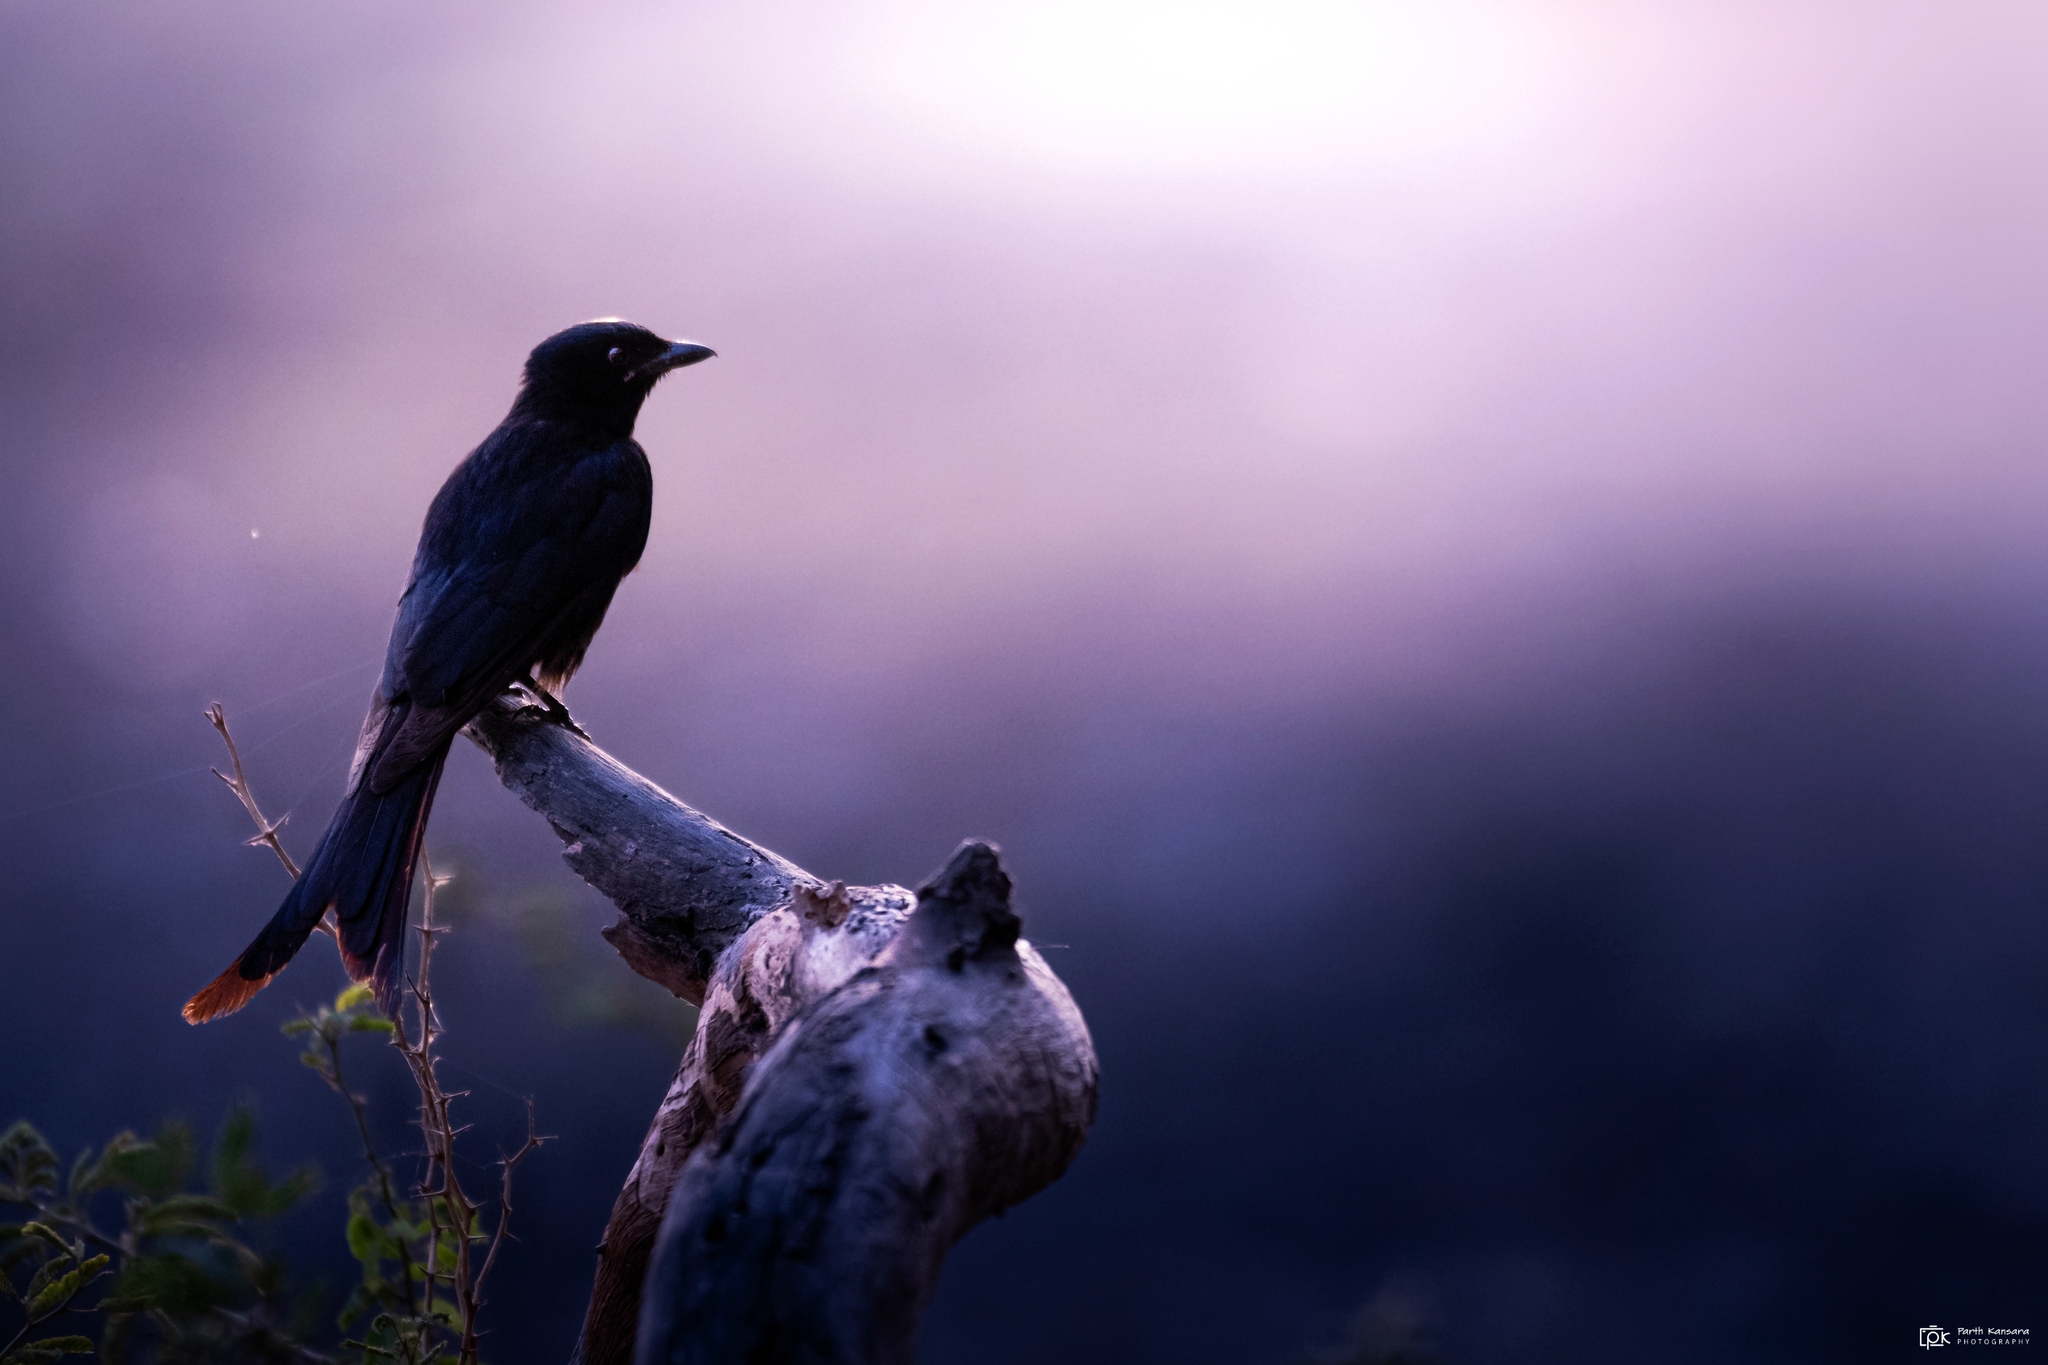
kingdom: Animalia
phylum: Chordata
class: Aves
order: Passeriformes
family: Dicruridae
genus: Dicrurus
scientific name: Dicrurus macrocercus
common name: Black drongo
